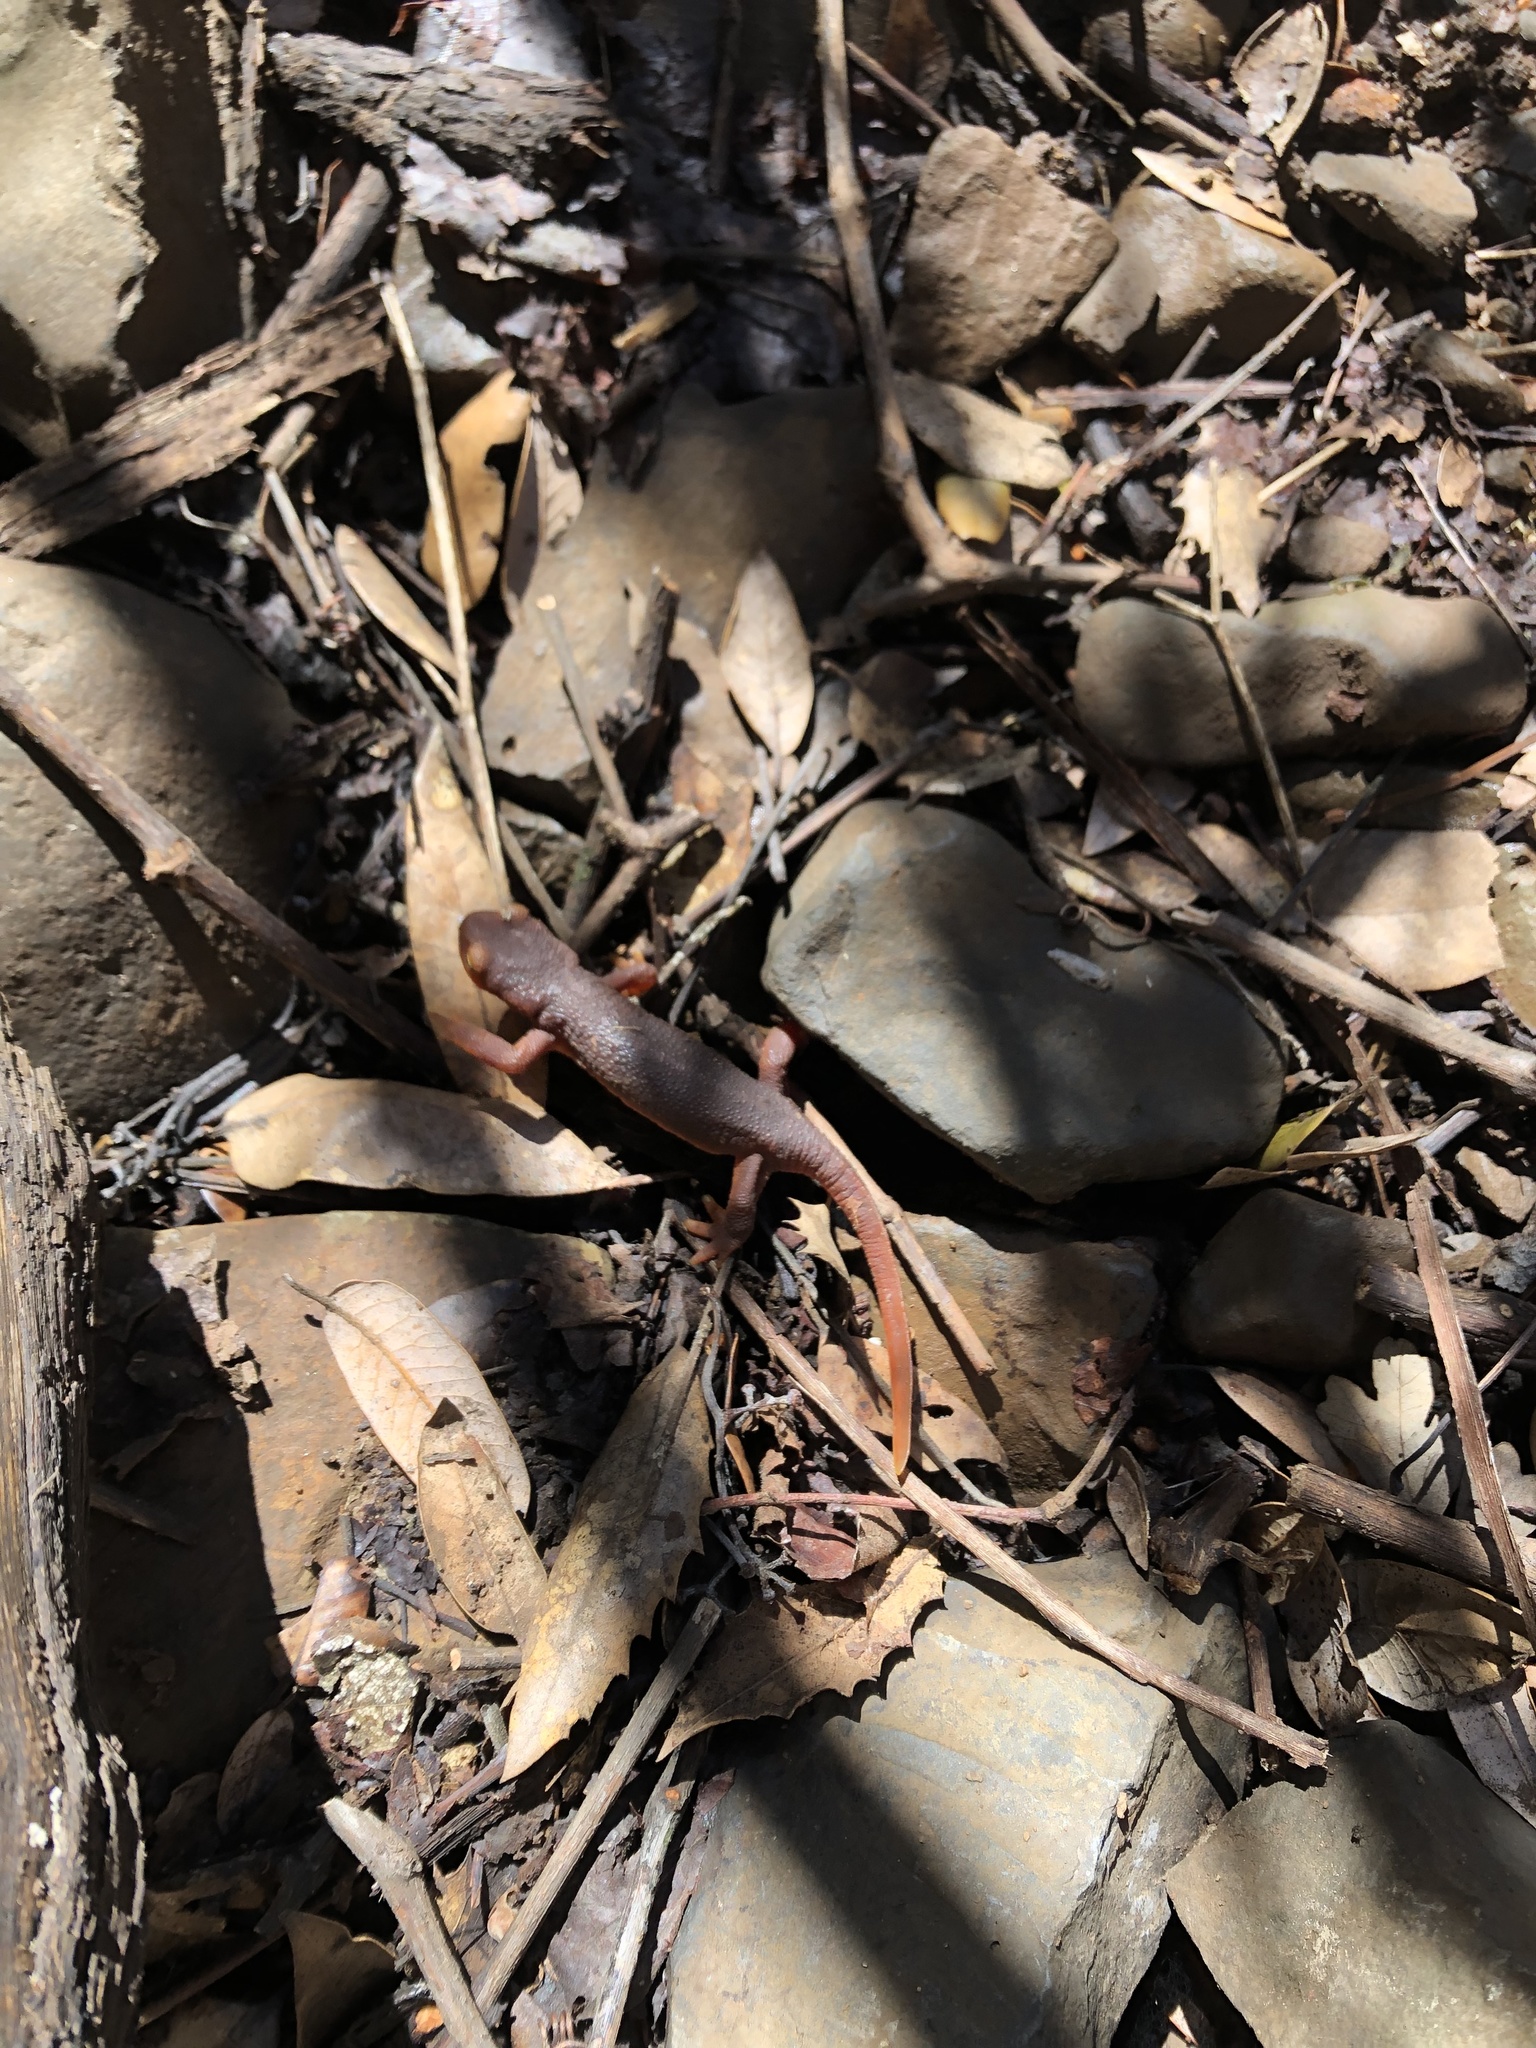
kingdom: Animalia
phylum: Chordata
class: Amphibia
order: Caudata
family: Salamandridae
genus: Taricha
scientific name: Taricha sierrae
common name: Sierra newt
